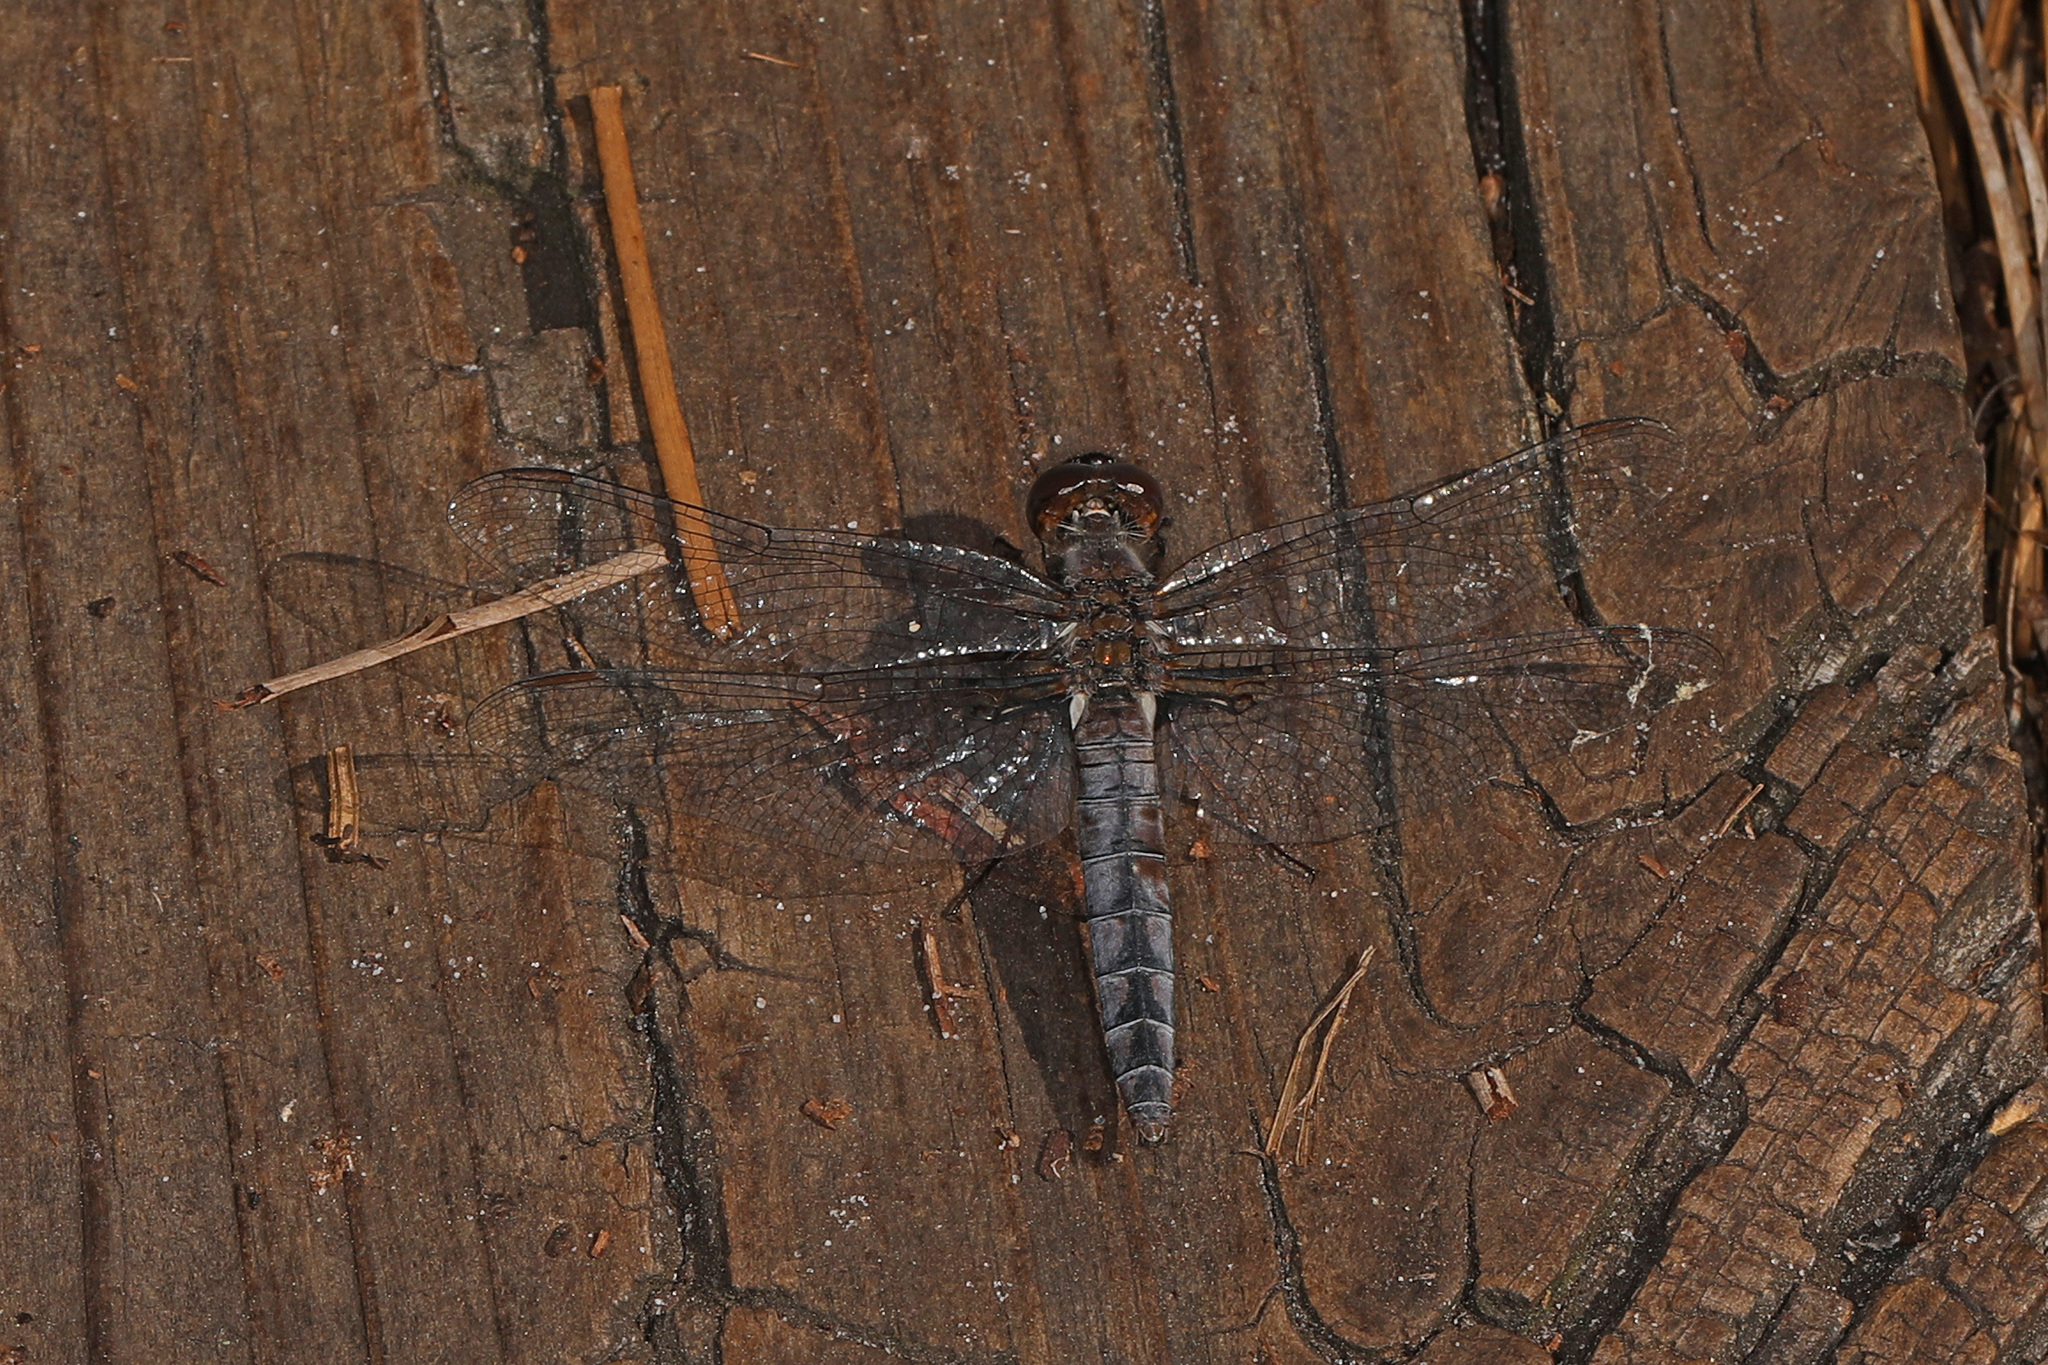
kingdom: Animalia
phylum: Arthropoda
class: Insecta
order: Odonata
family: Libellulidae
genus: Ladona
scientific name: Ladona deplanata
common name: Blue corporal
